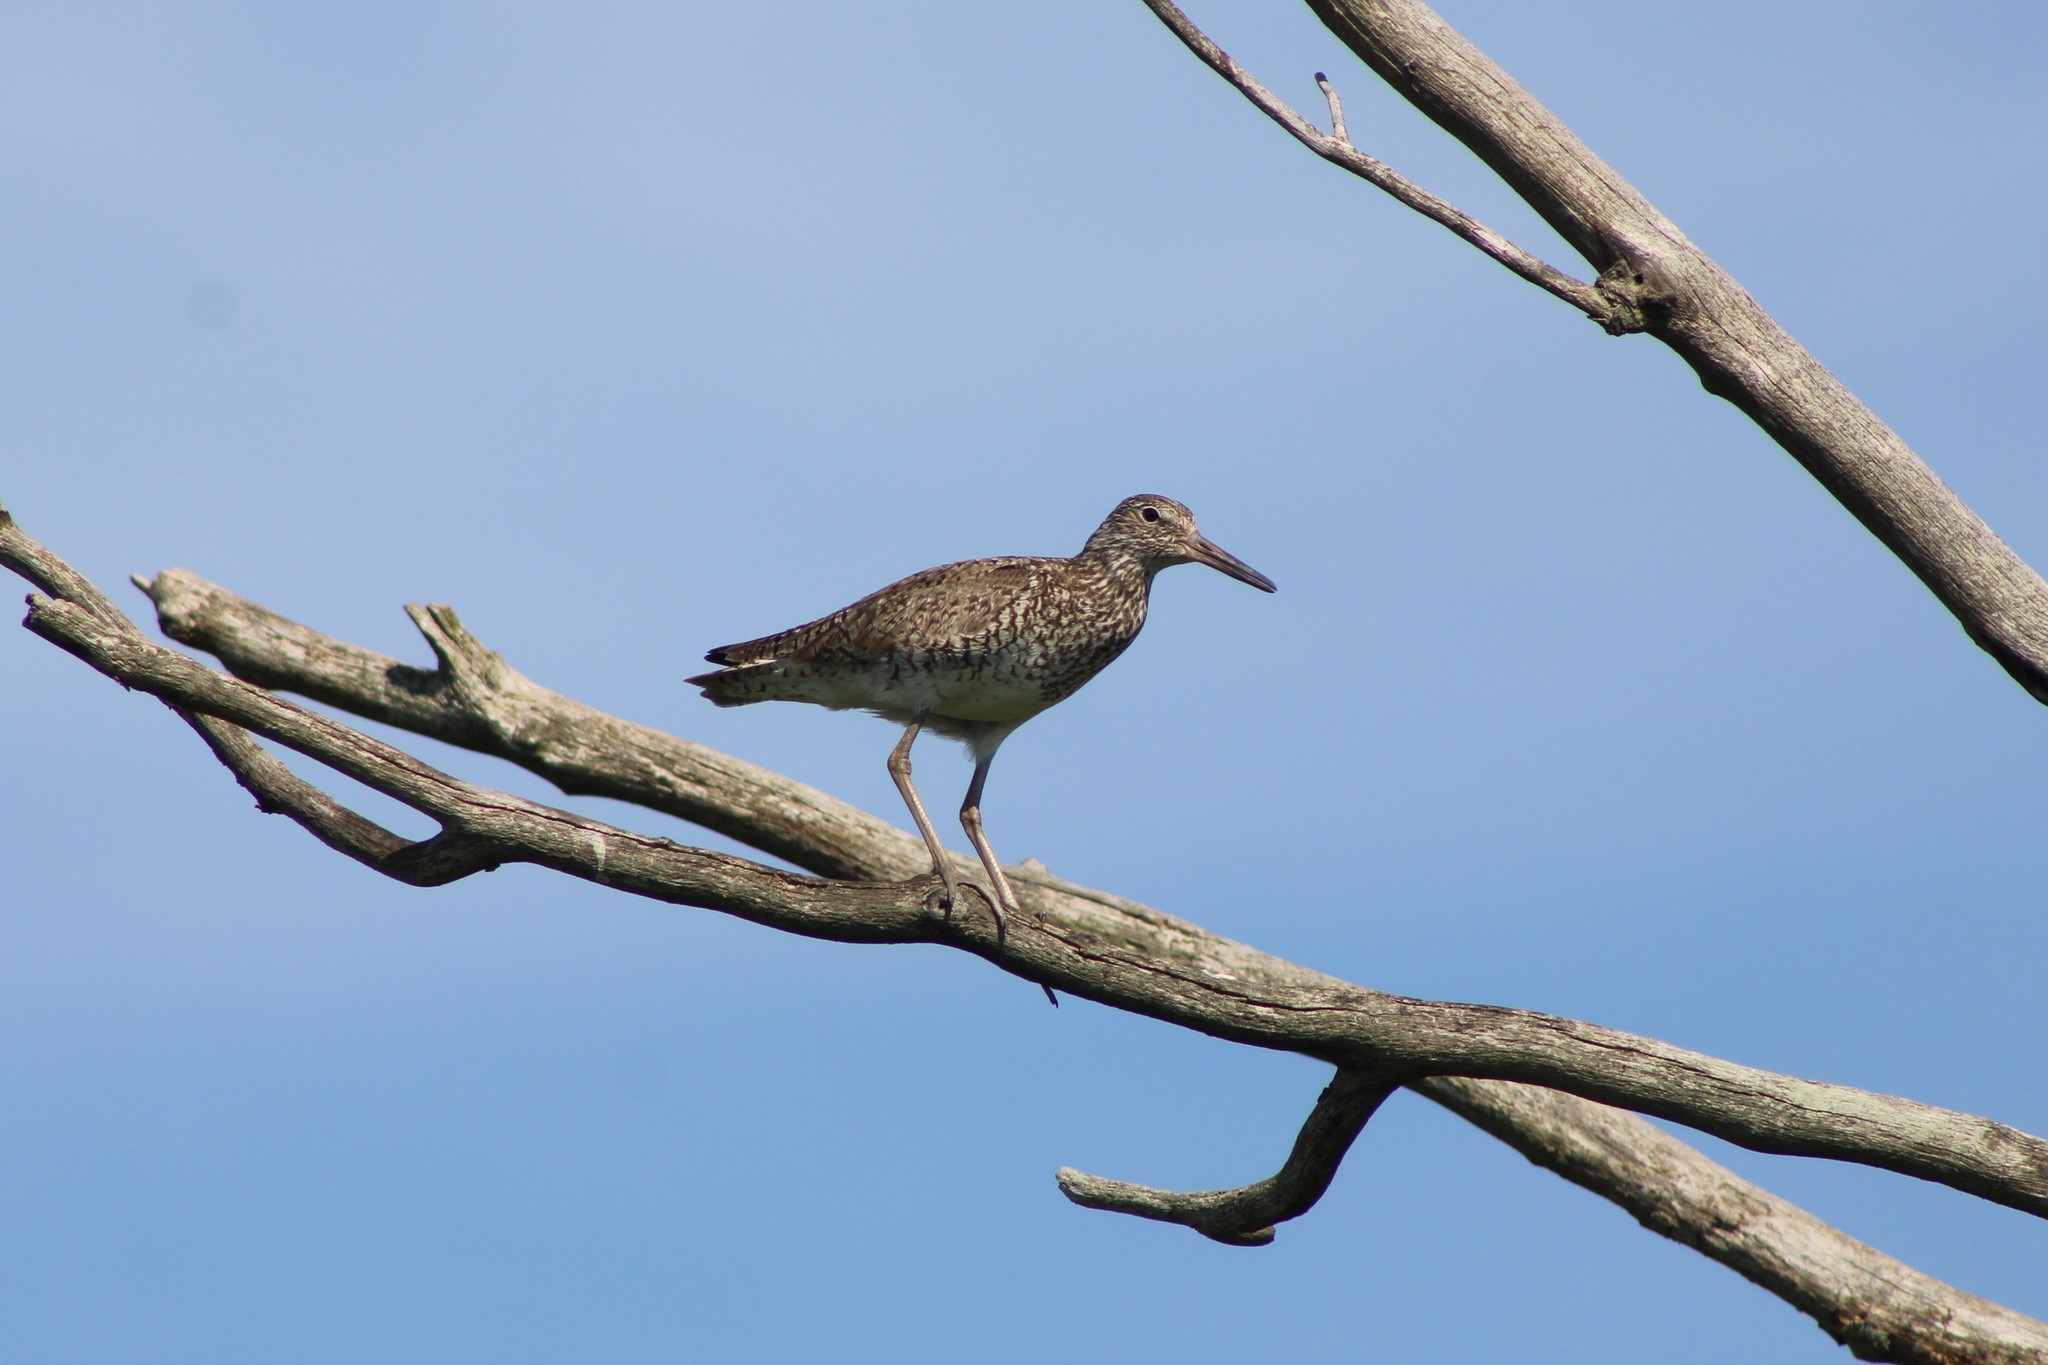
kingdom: Animalia
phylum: Chordata
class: Aves
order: Charadriiformes
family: Scolopacidae
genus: Tringa
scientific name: Tringa semipalmata
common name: Willet
